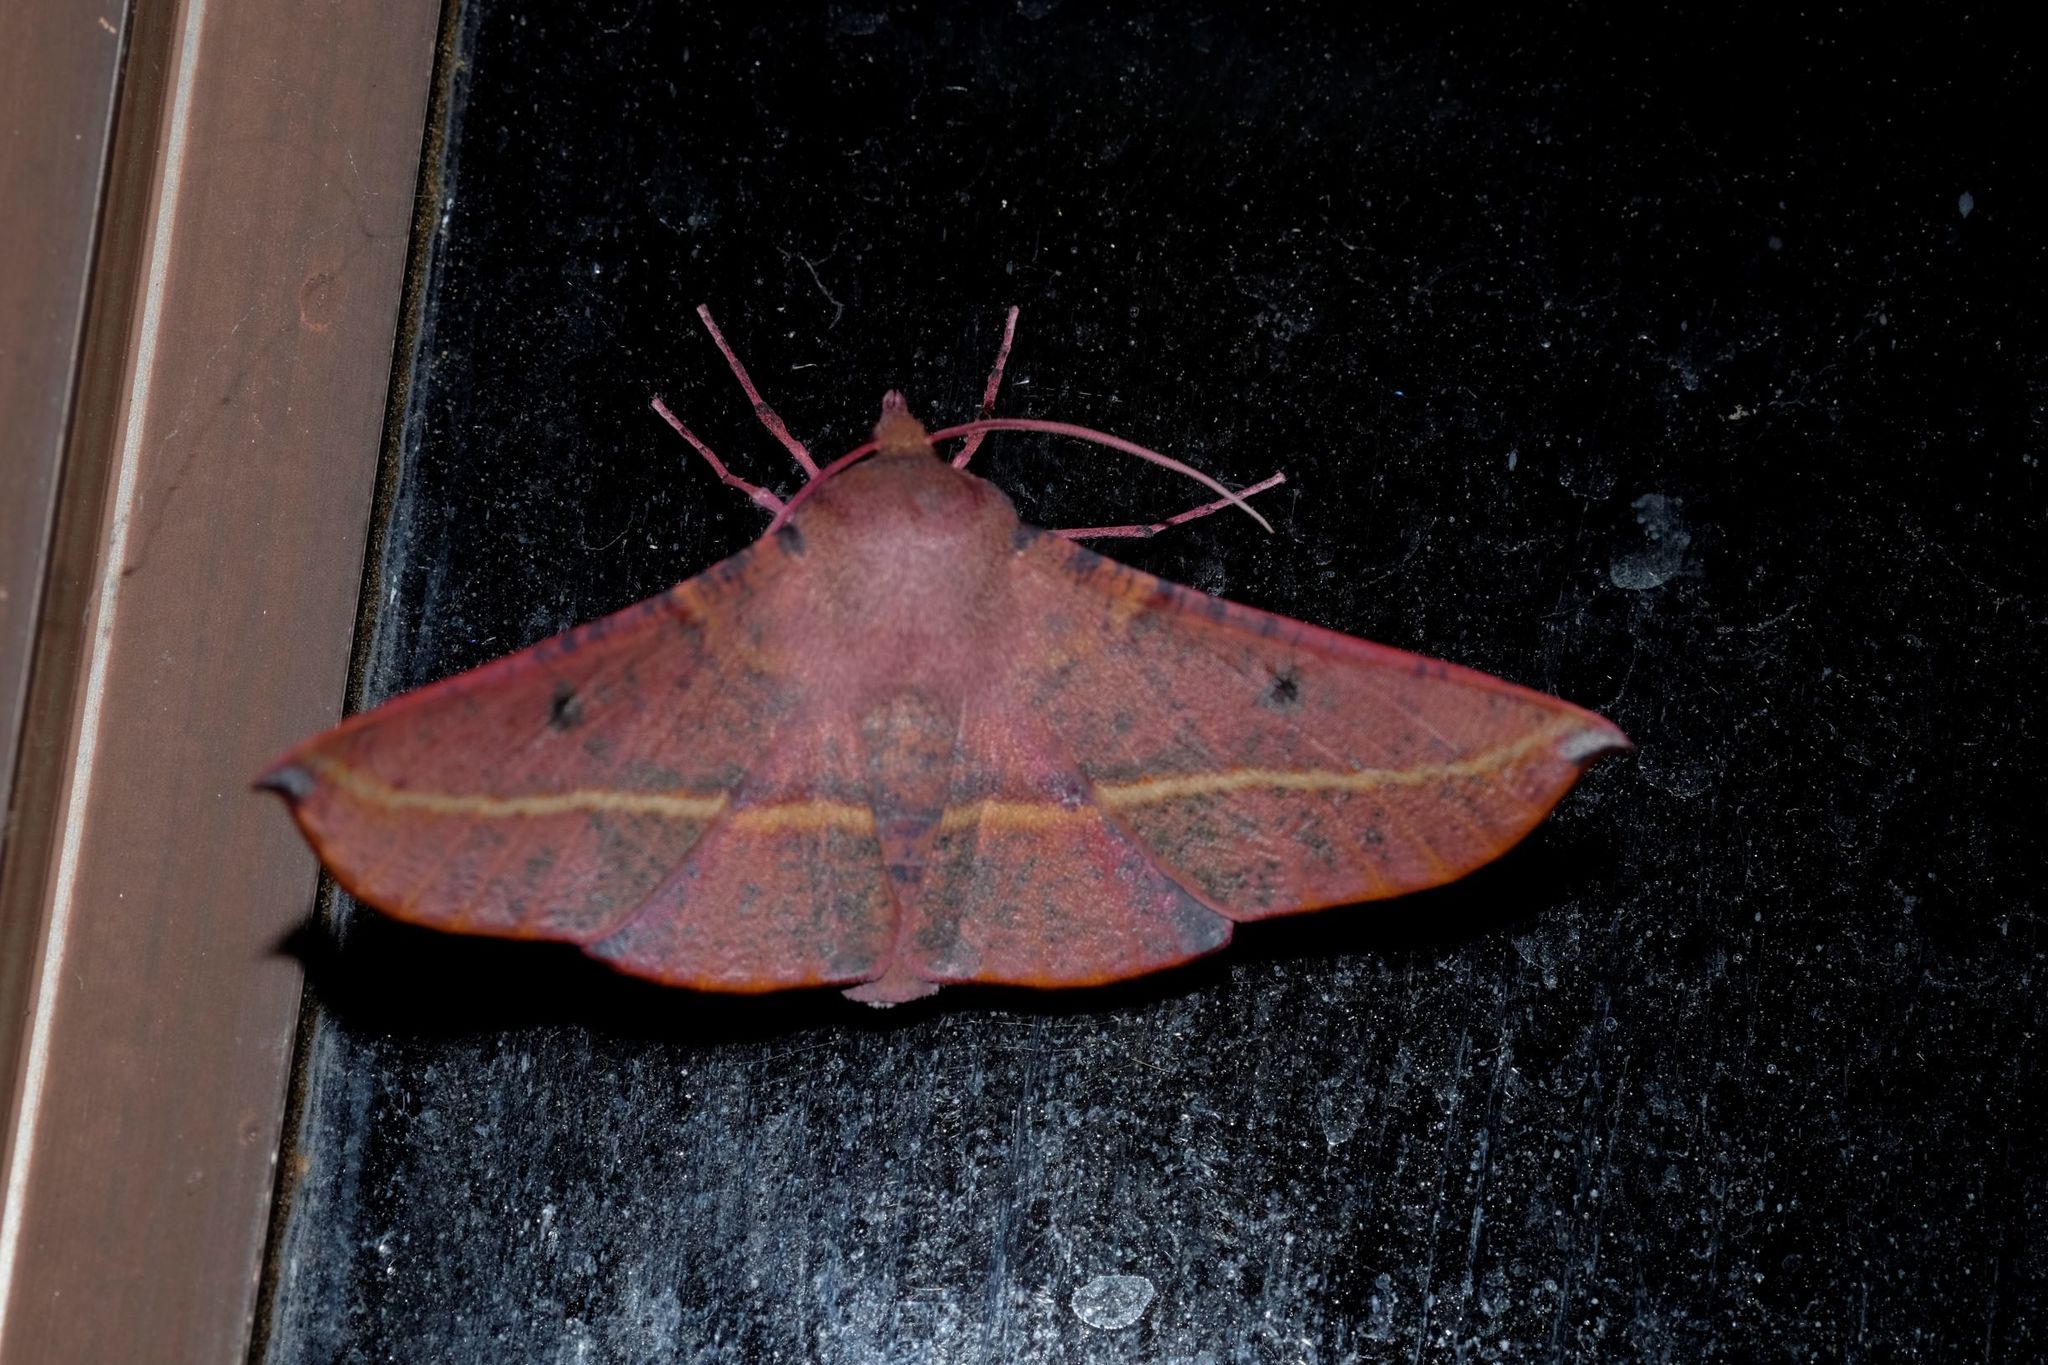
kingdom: Animalia
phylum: Arthropoda
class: Insecta
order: Lepidoptera
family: Geometridae
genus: Oenochroma
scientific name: Oenochroma vinaria
